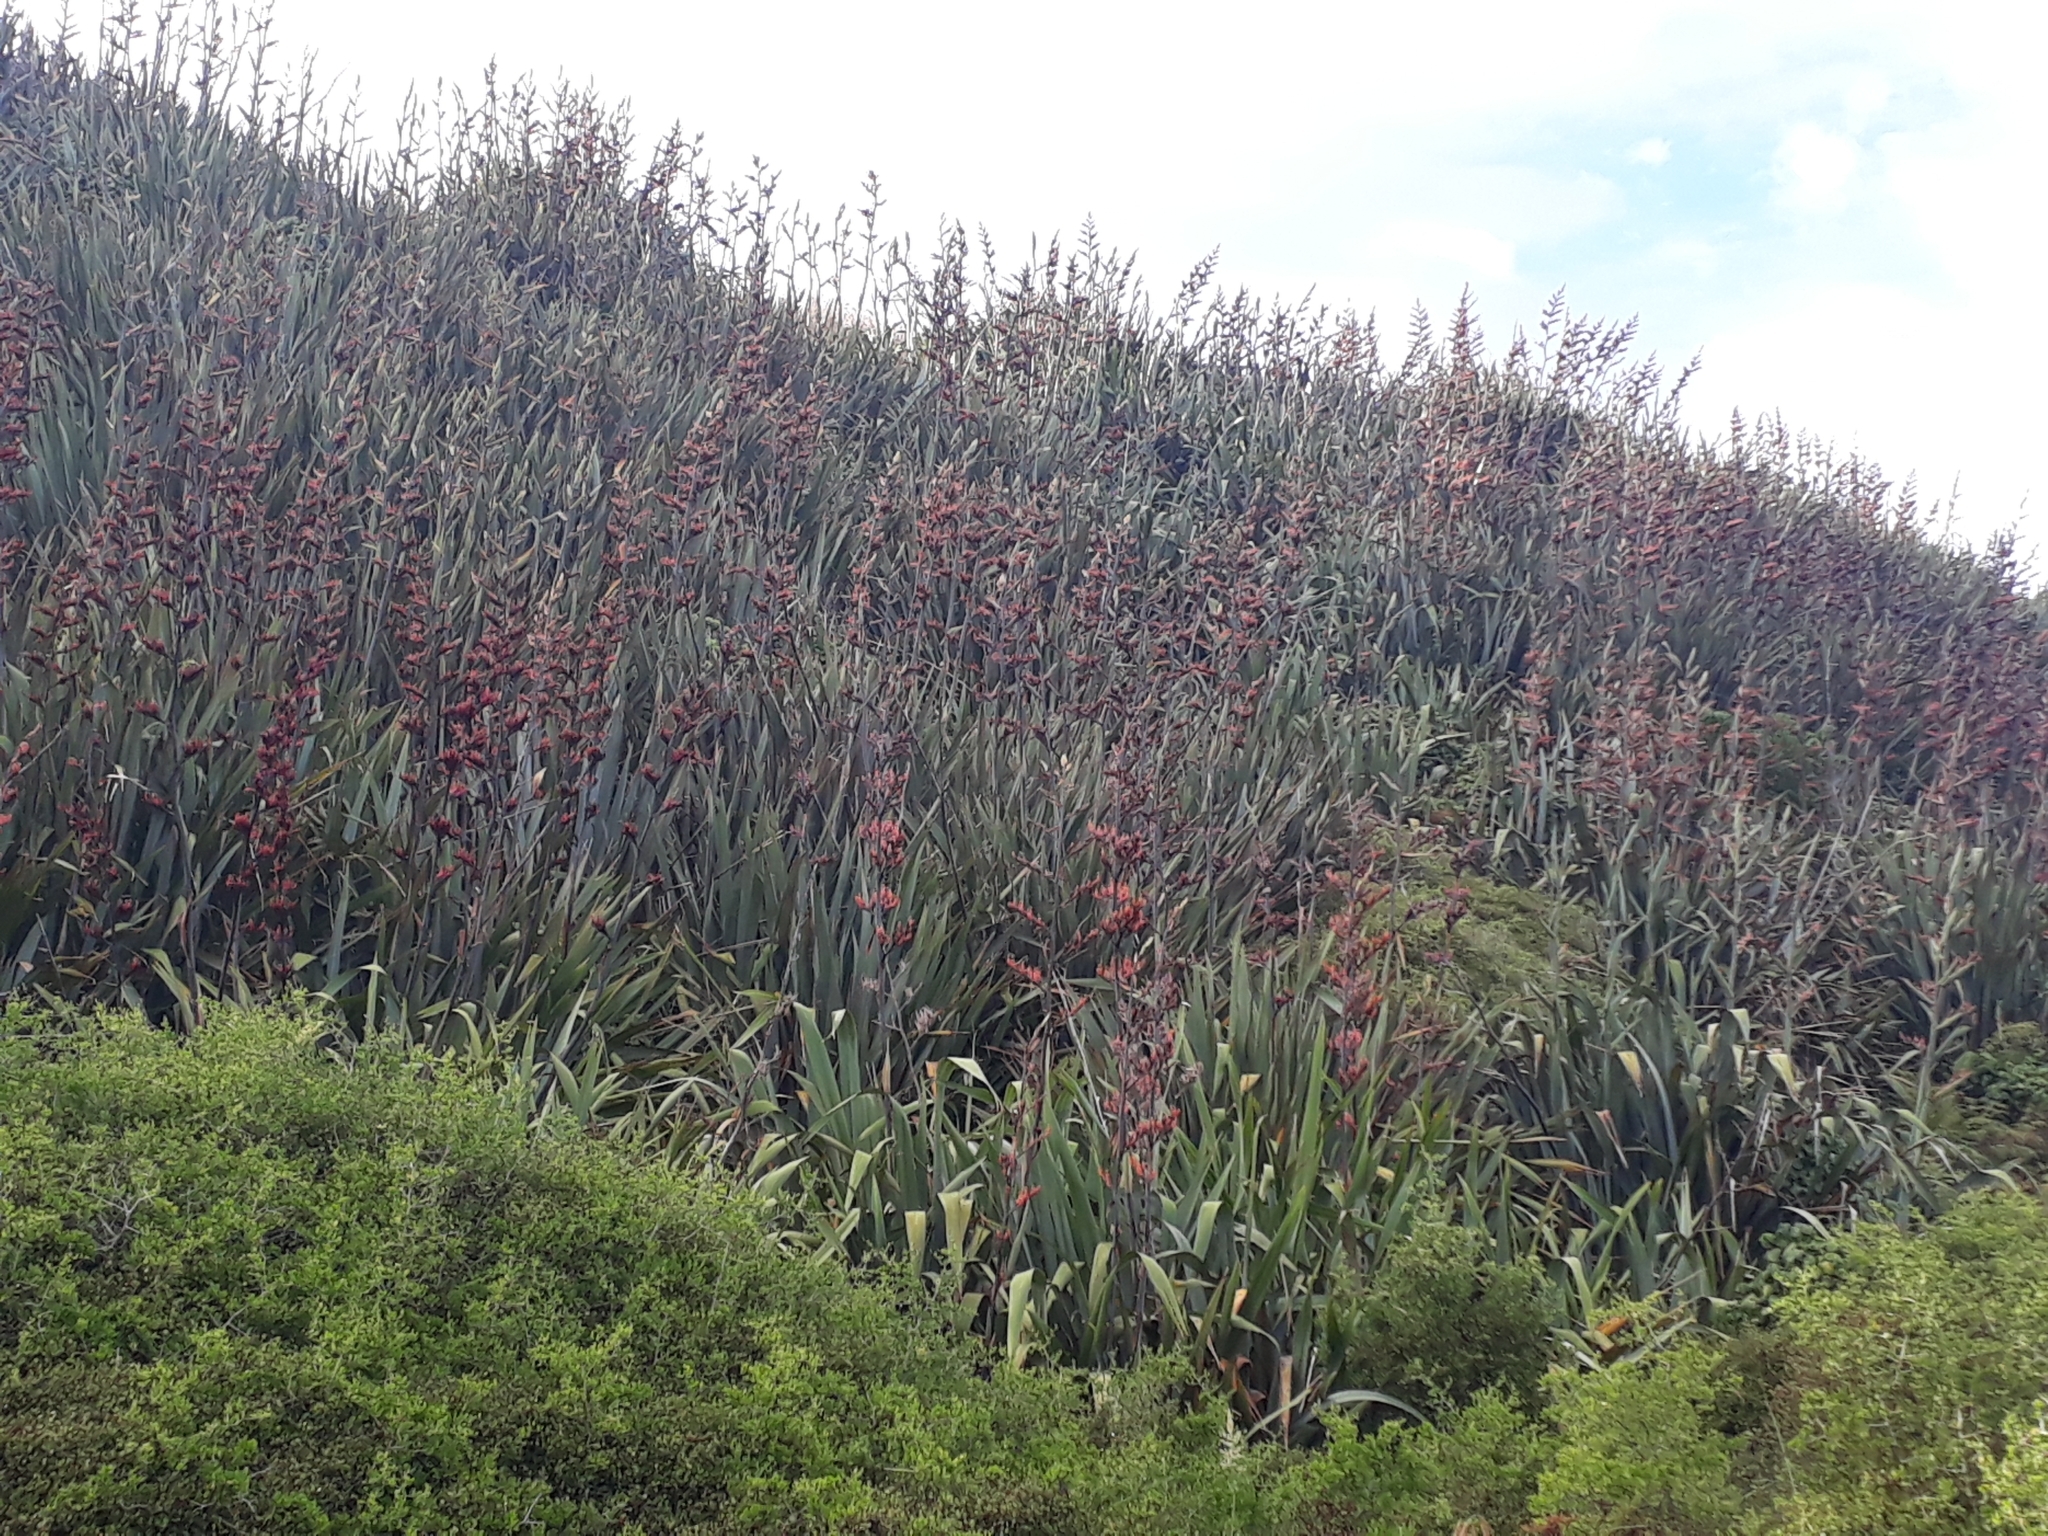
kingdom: Plantae
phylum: Tracheophyta
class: Liliopsida
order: Asparagales
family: Asphodelaceae
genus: Phormium
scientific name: Phormium tenax
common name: New zealand flax
